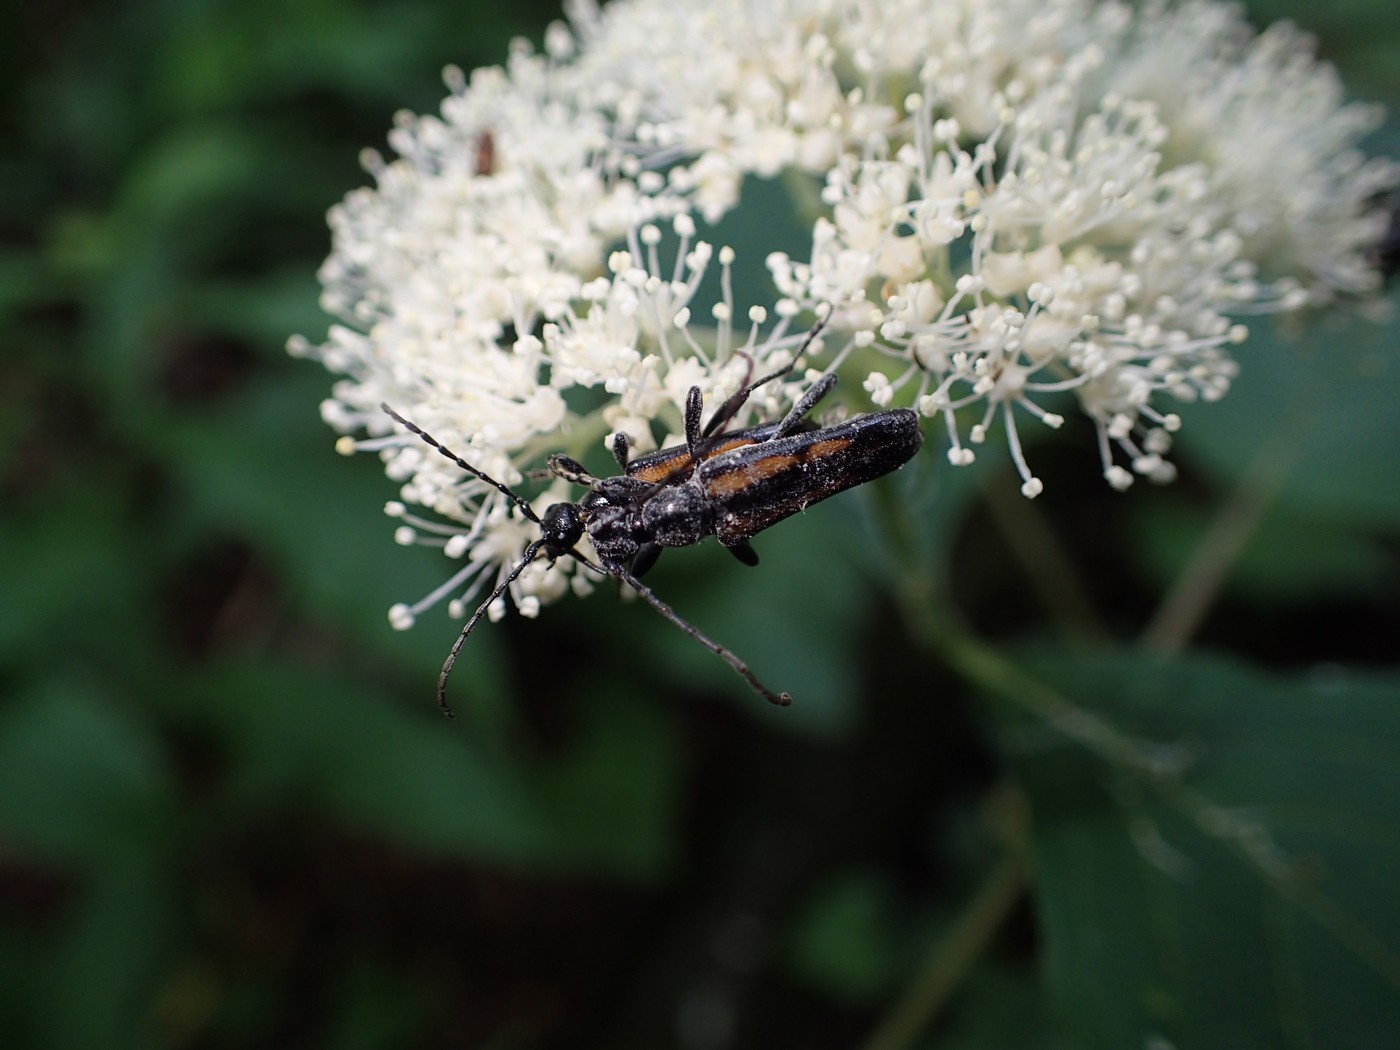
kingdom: Animalia
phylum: Arthropoda
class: Insecta
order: Coleoptera
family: Cerambycidae
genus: Strangalepta
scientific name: Strangalepta abbreviata
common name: Strangalepta flower longhorn beetle
